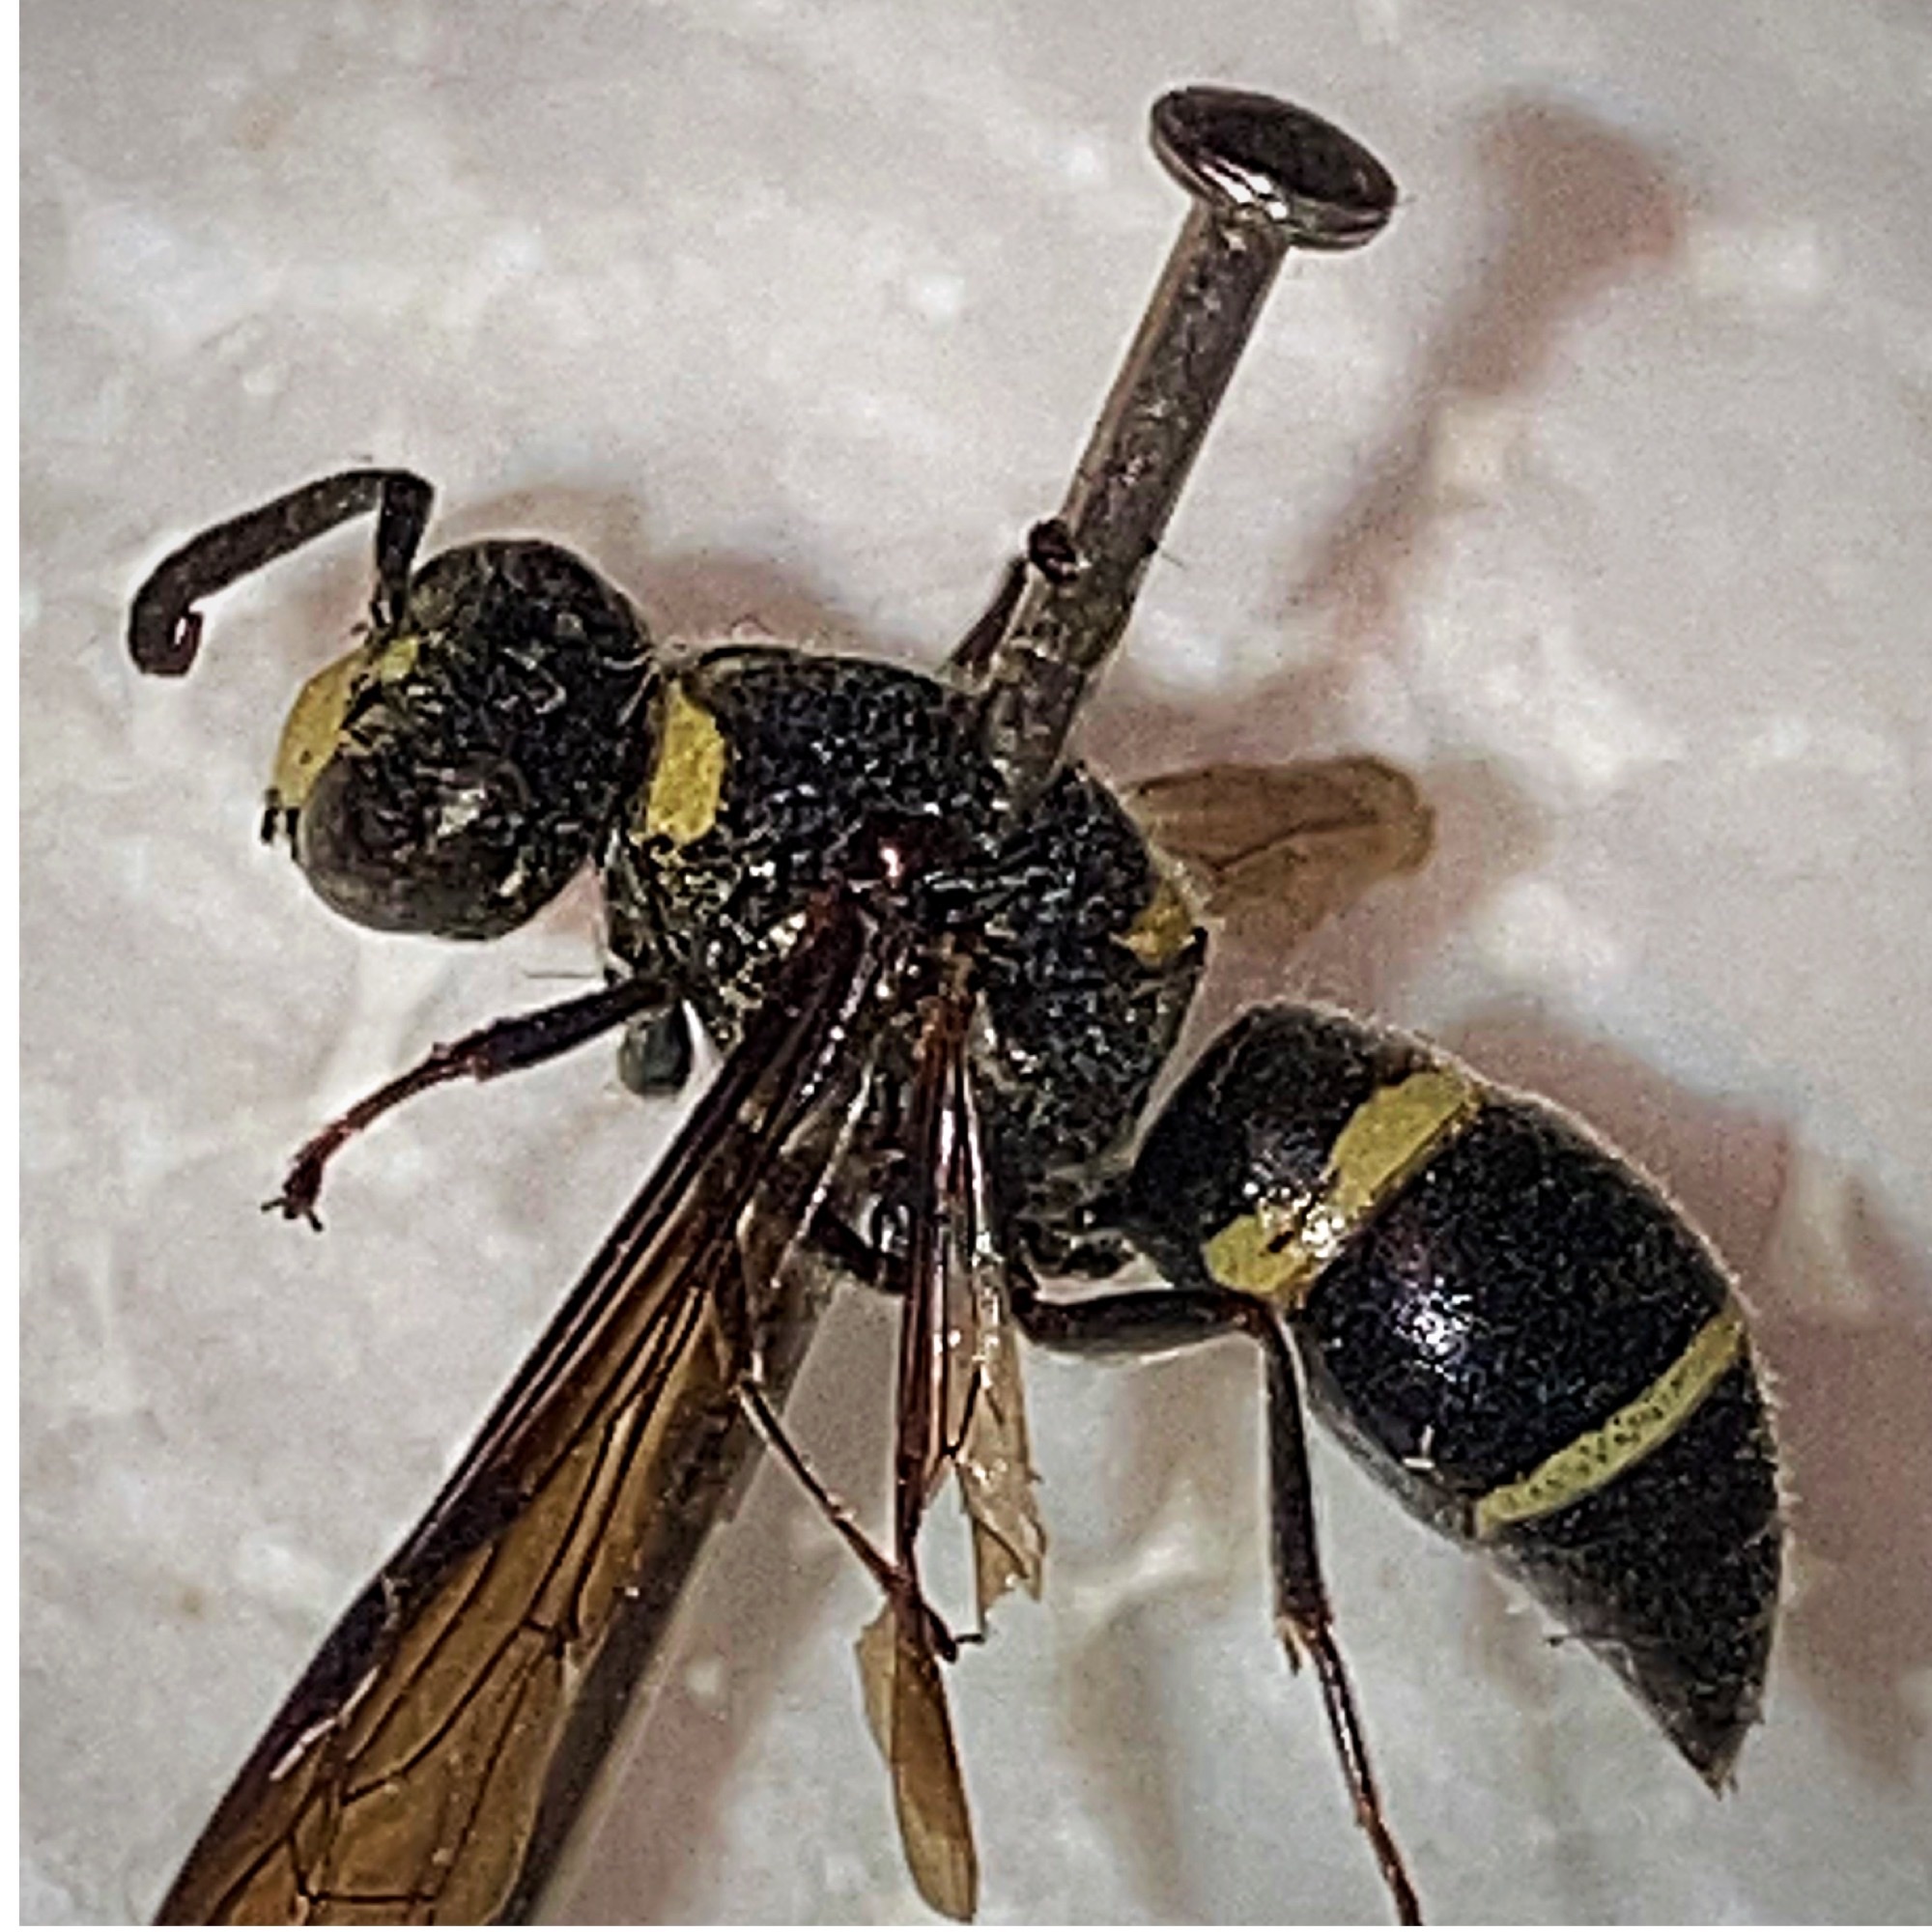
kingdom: Animalia
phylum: Arthropoda
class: Insecta
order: Hymenoptera
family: Eumenidae
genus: Euodynerus
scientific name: Euodynerus
